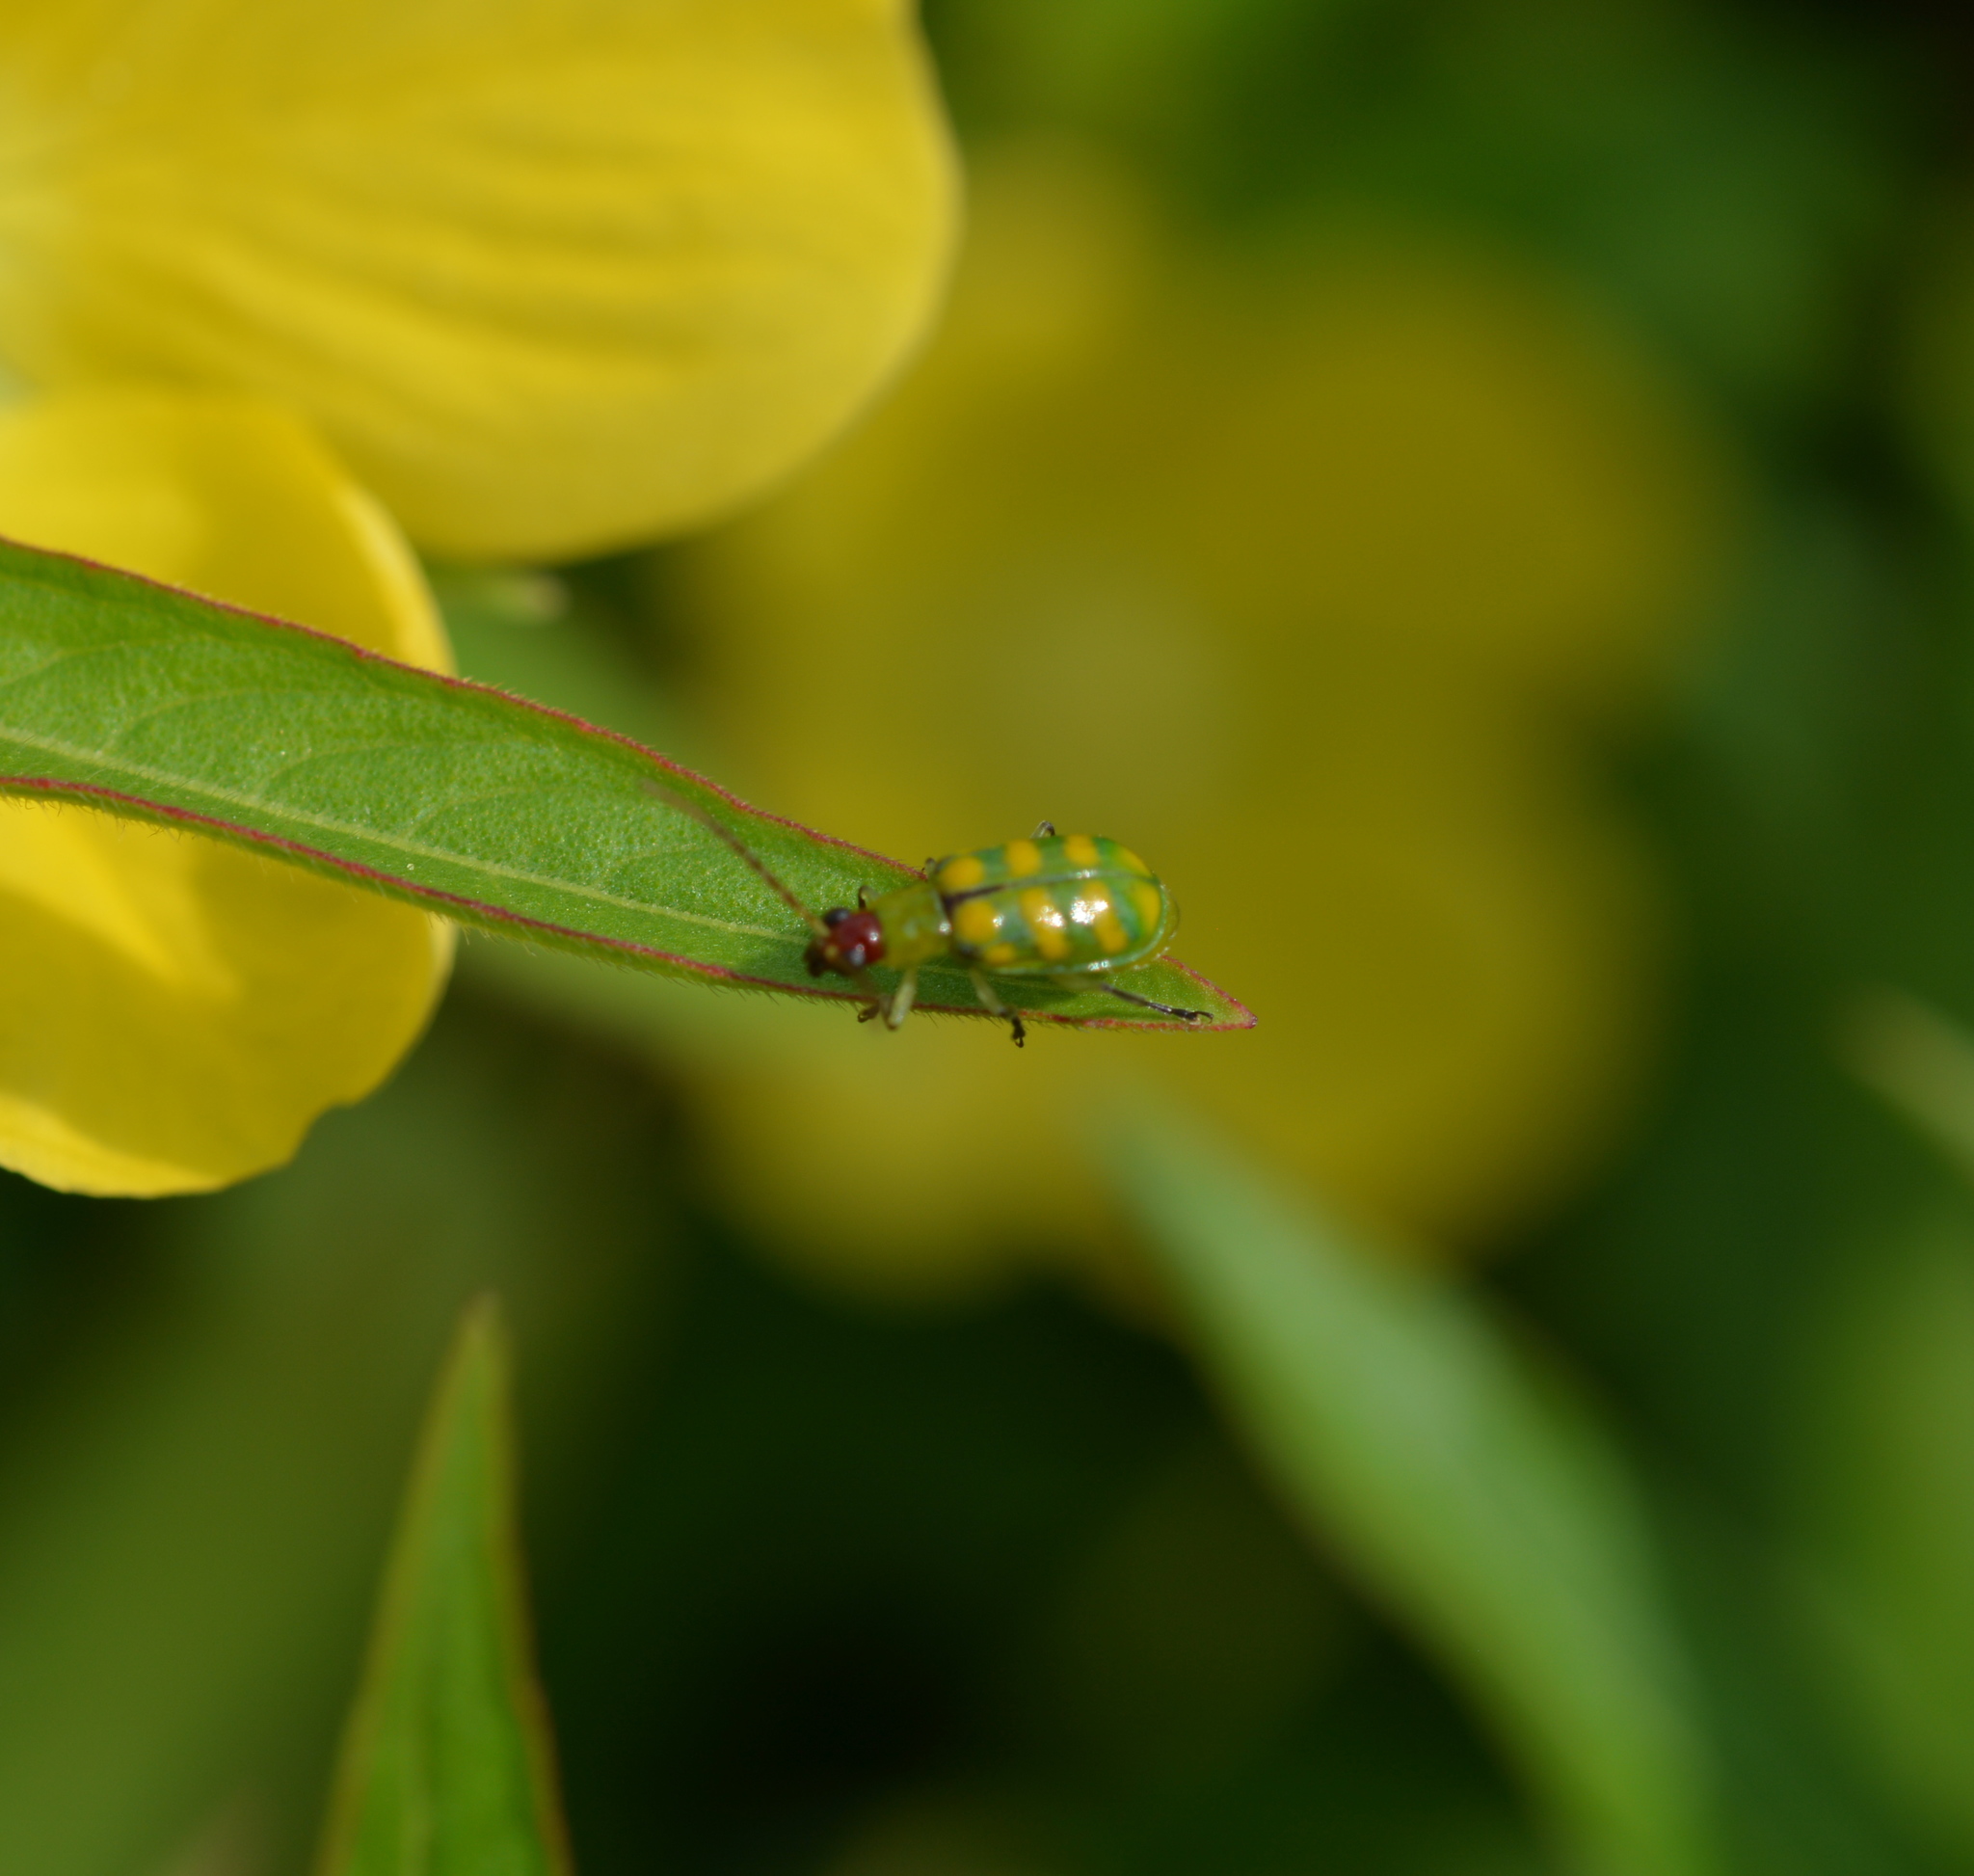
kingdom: Animalia
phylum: Arthropoda
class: Insecta
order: Coleoptera
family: Chrysomelidae
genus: Diabrotica
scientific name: Diabrotica balteata
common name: Leaf beetle
